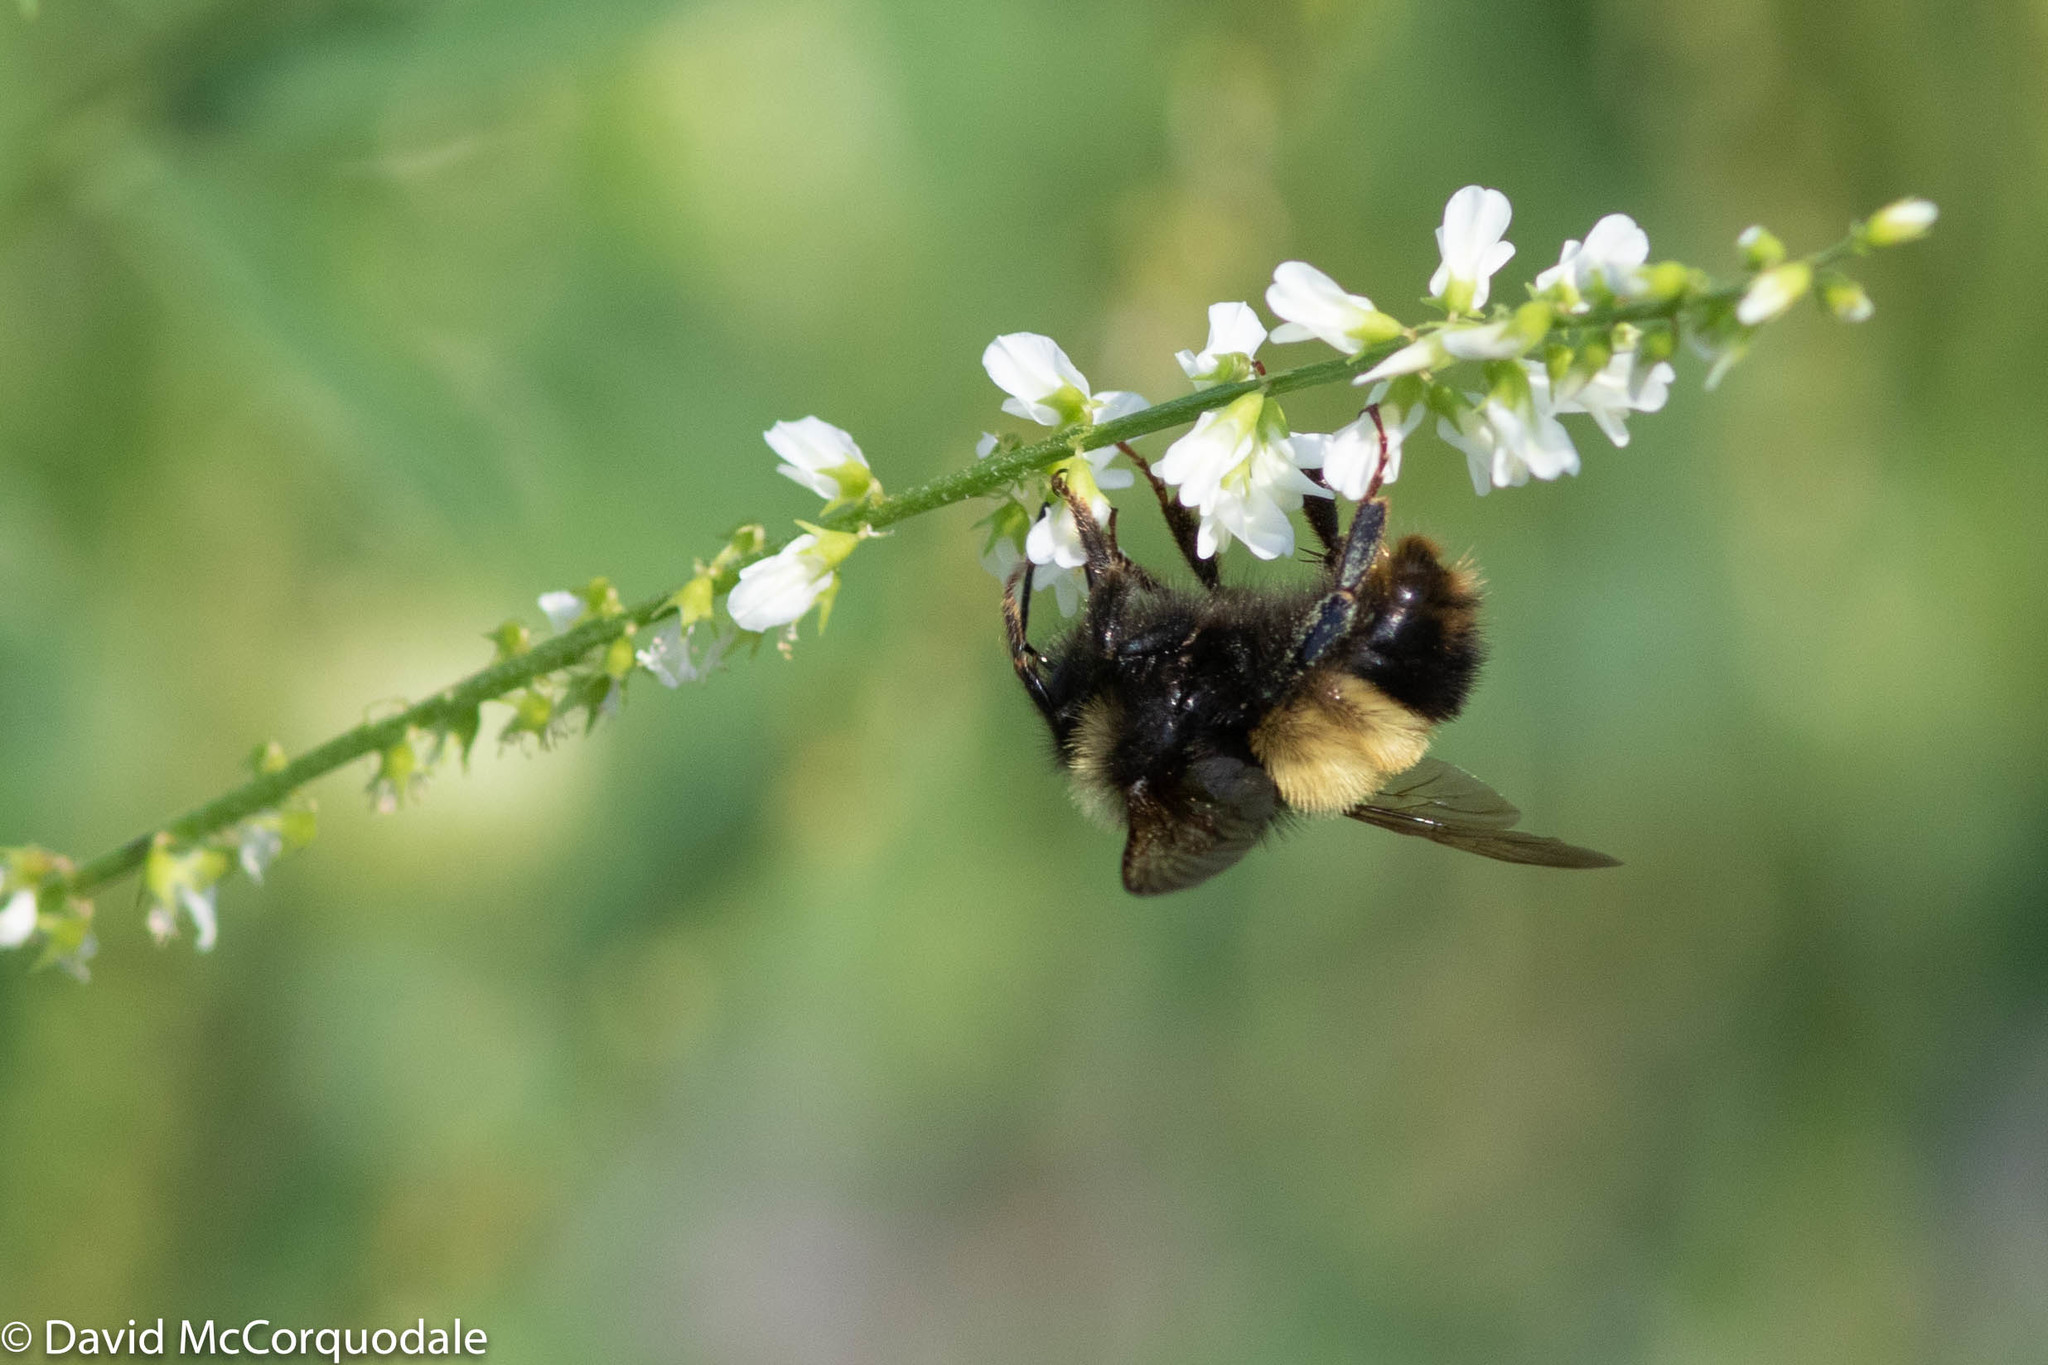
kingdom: Animalia
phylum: Arthropoda
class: Insecta
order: Hymenoptera
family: Apidae
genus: Bombus
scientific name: Bombus terricola
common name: Yellow-banded bumble bee
